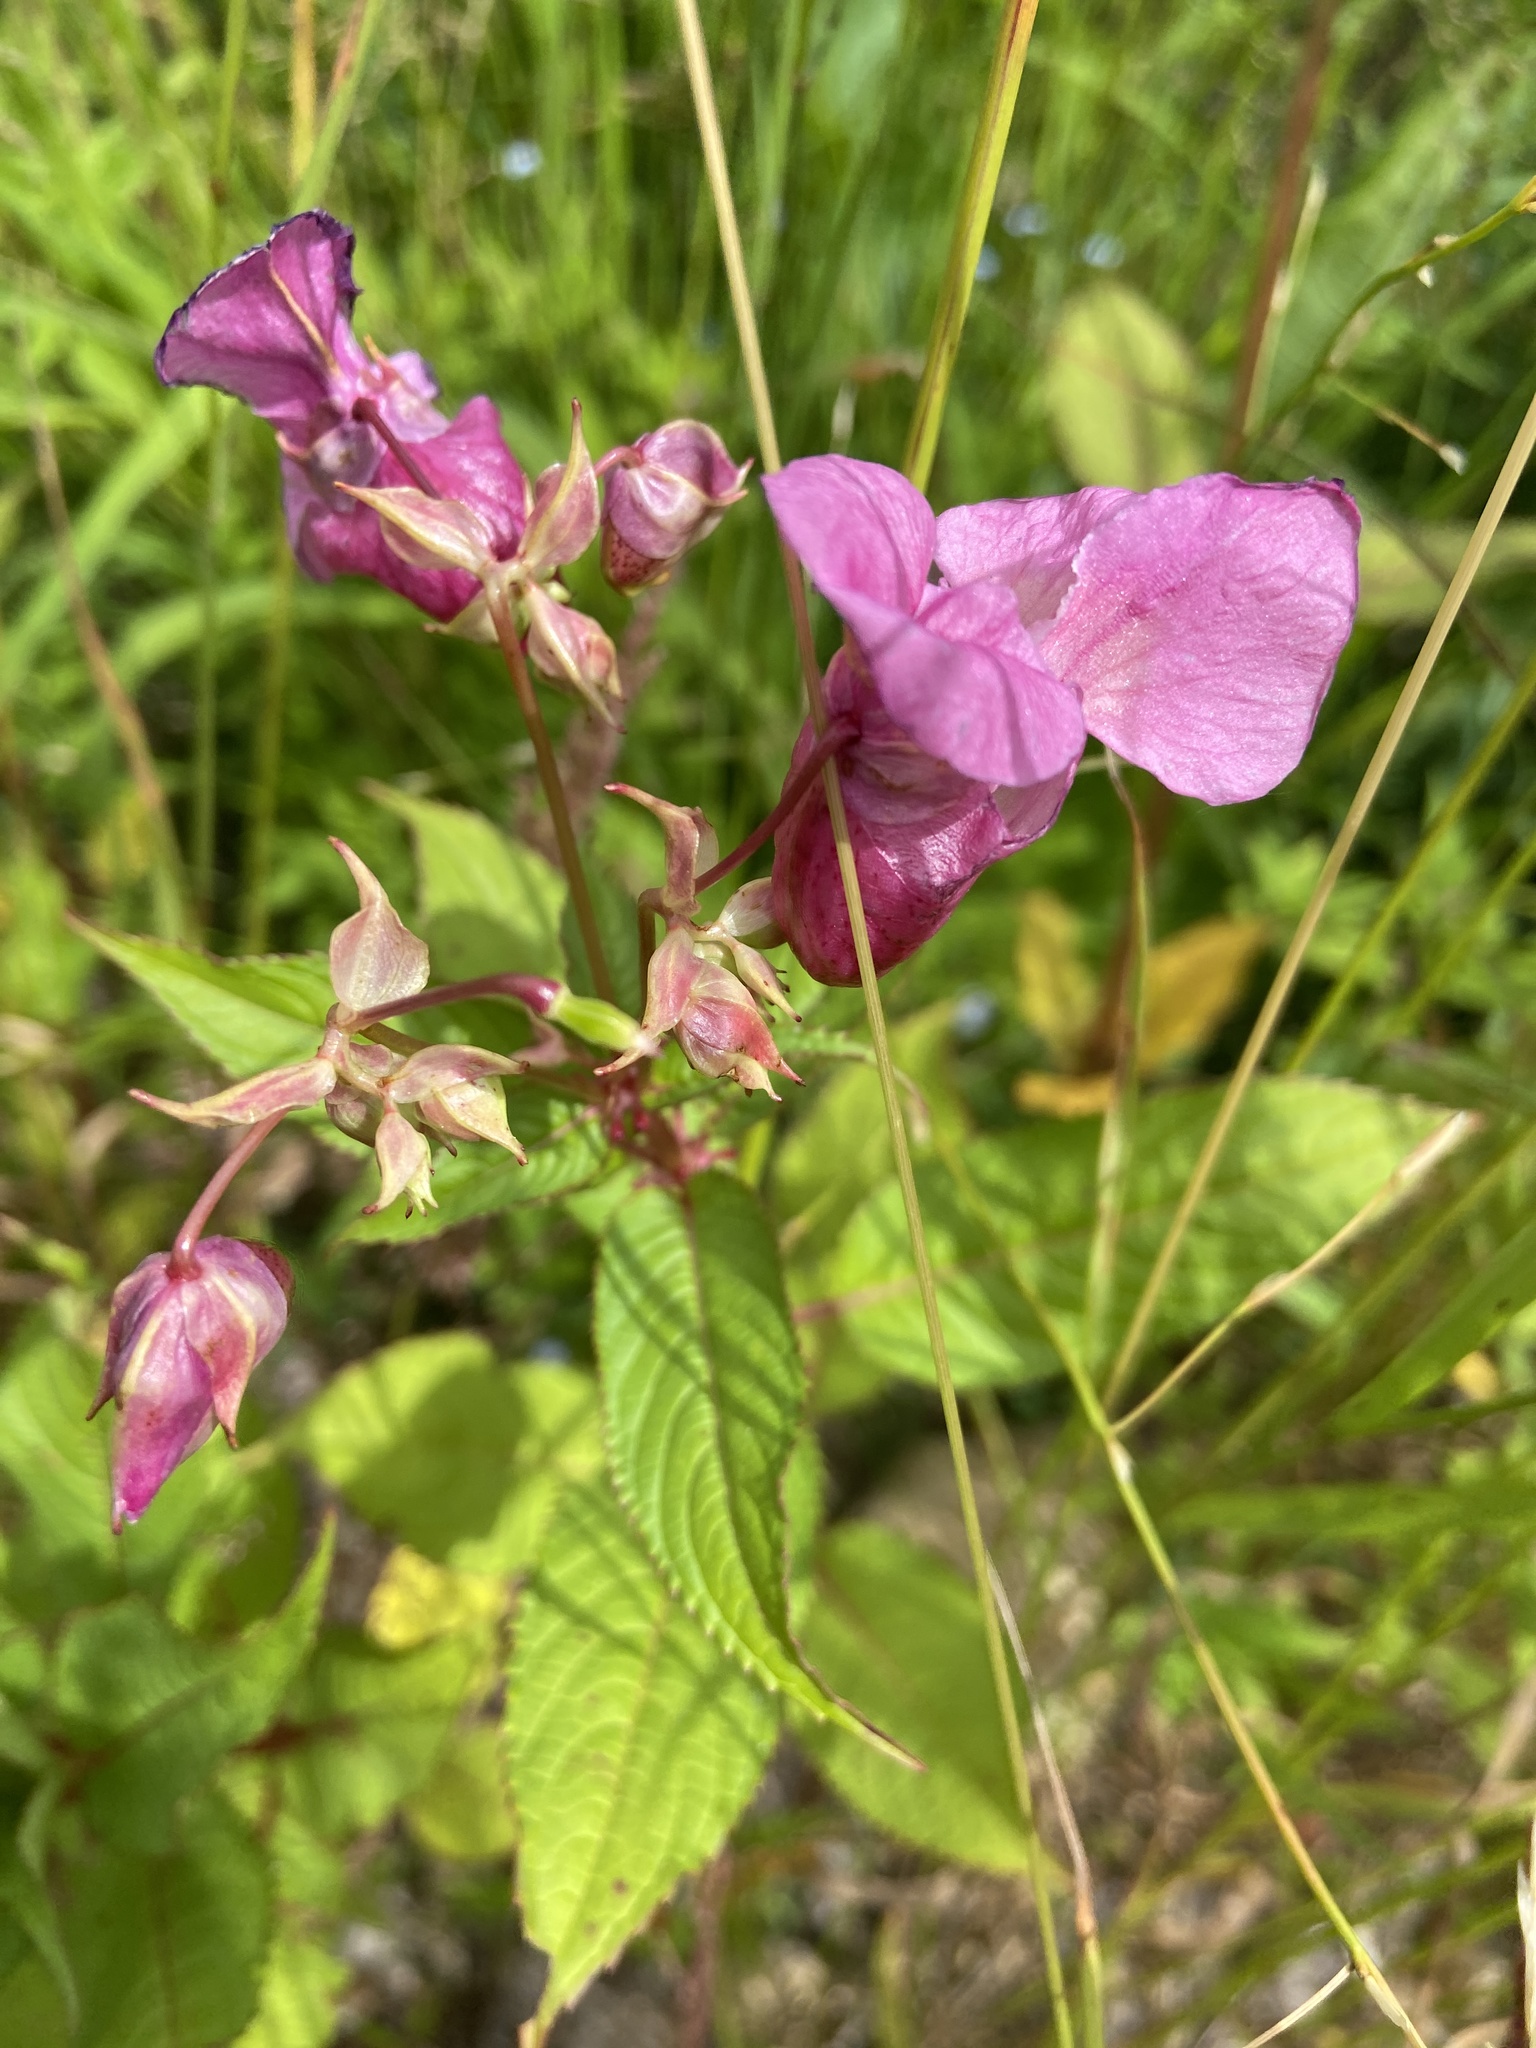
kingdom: Plantae
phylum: Tracheophyta
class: Magnoliopsida
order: Ericales
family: Balsaminaceae
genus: Impatiens
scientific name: Impatiens glandulifera
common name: Himalayan balsam
